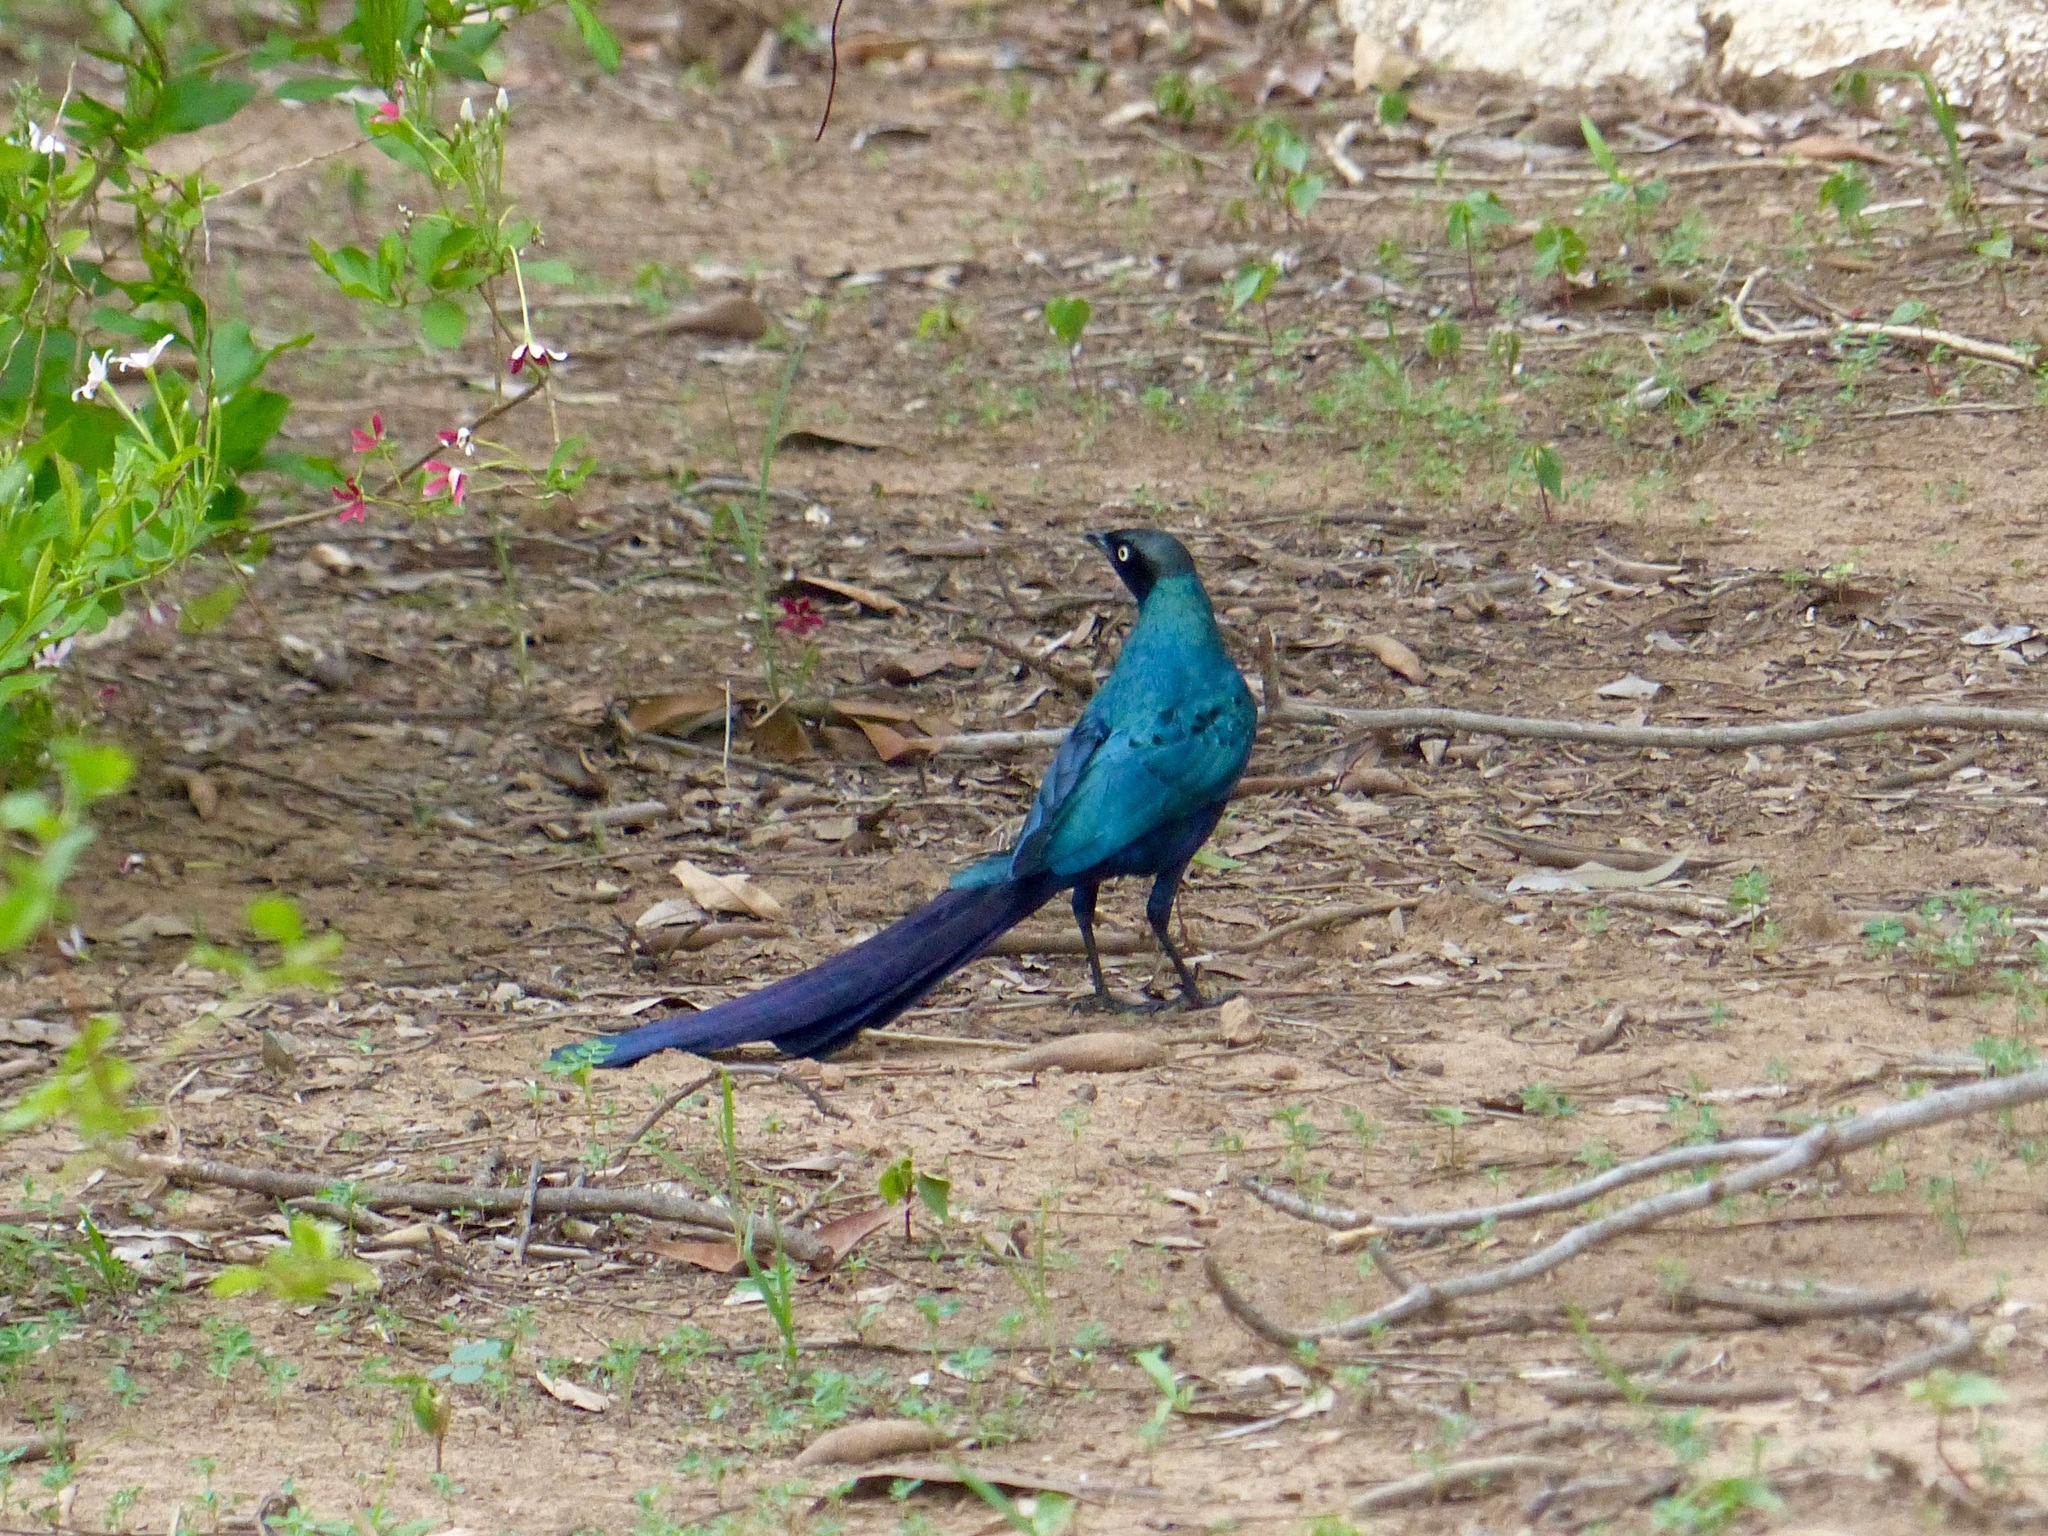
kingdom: Animalia
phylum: Chordata
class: Aves
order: Passeriformes
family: Sturnidae
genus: Lamprotornis
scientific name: Lamprotornis caudatus
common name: Long-tailed glossy starling
